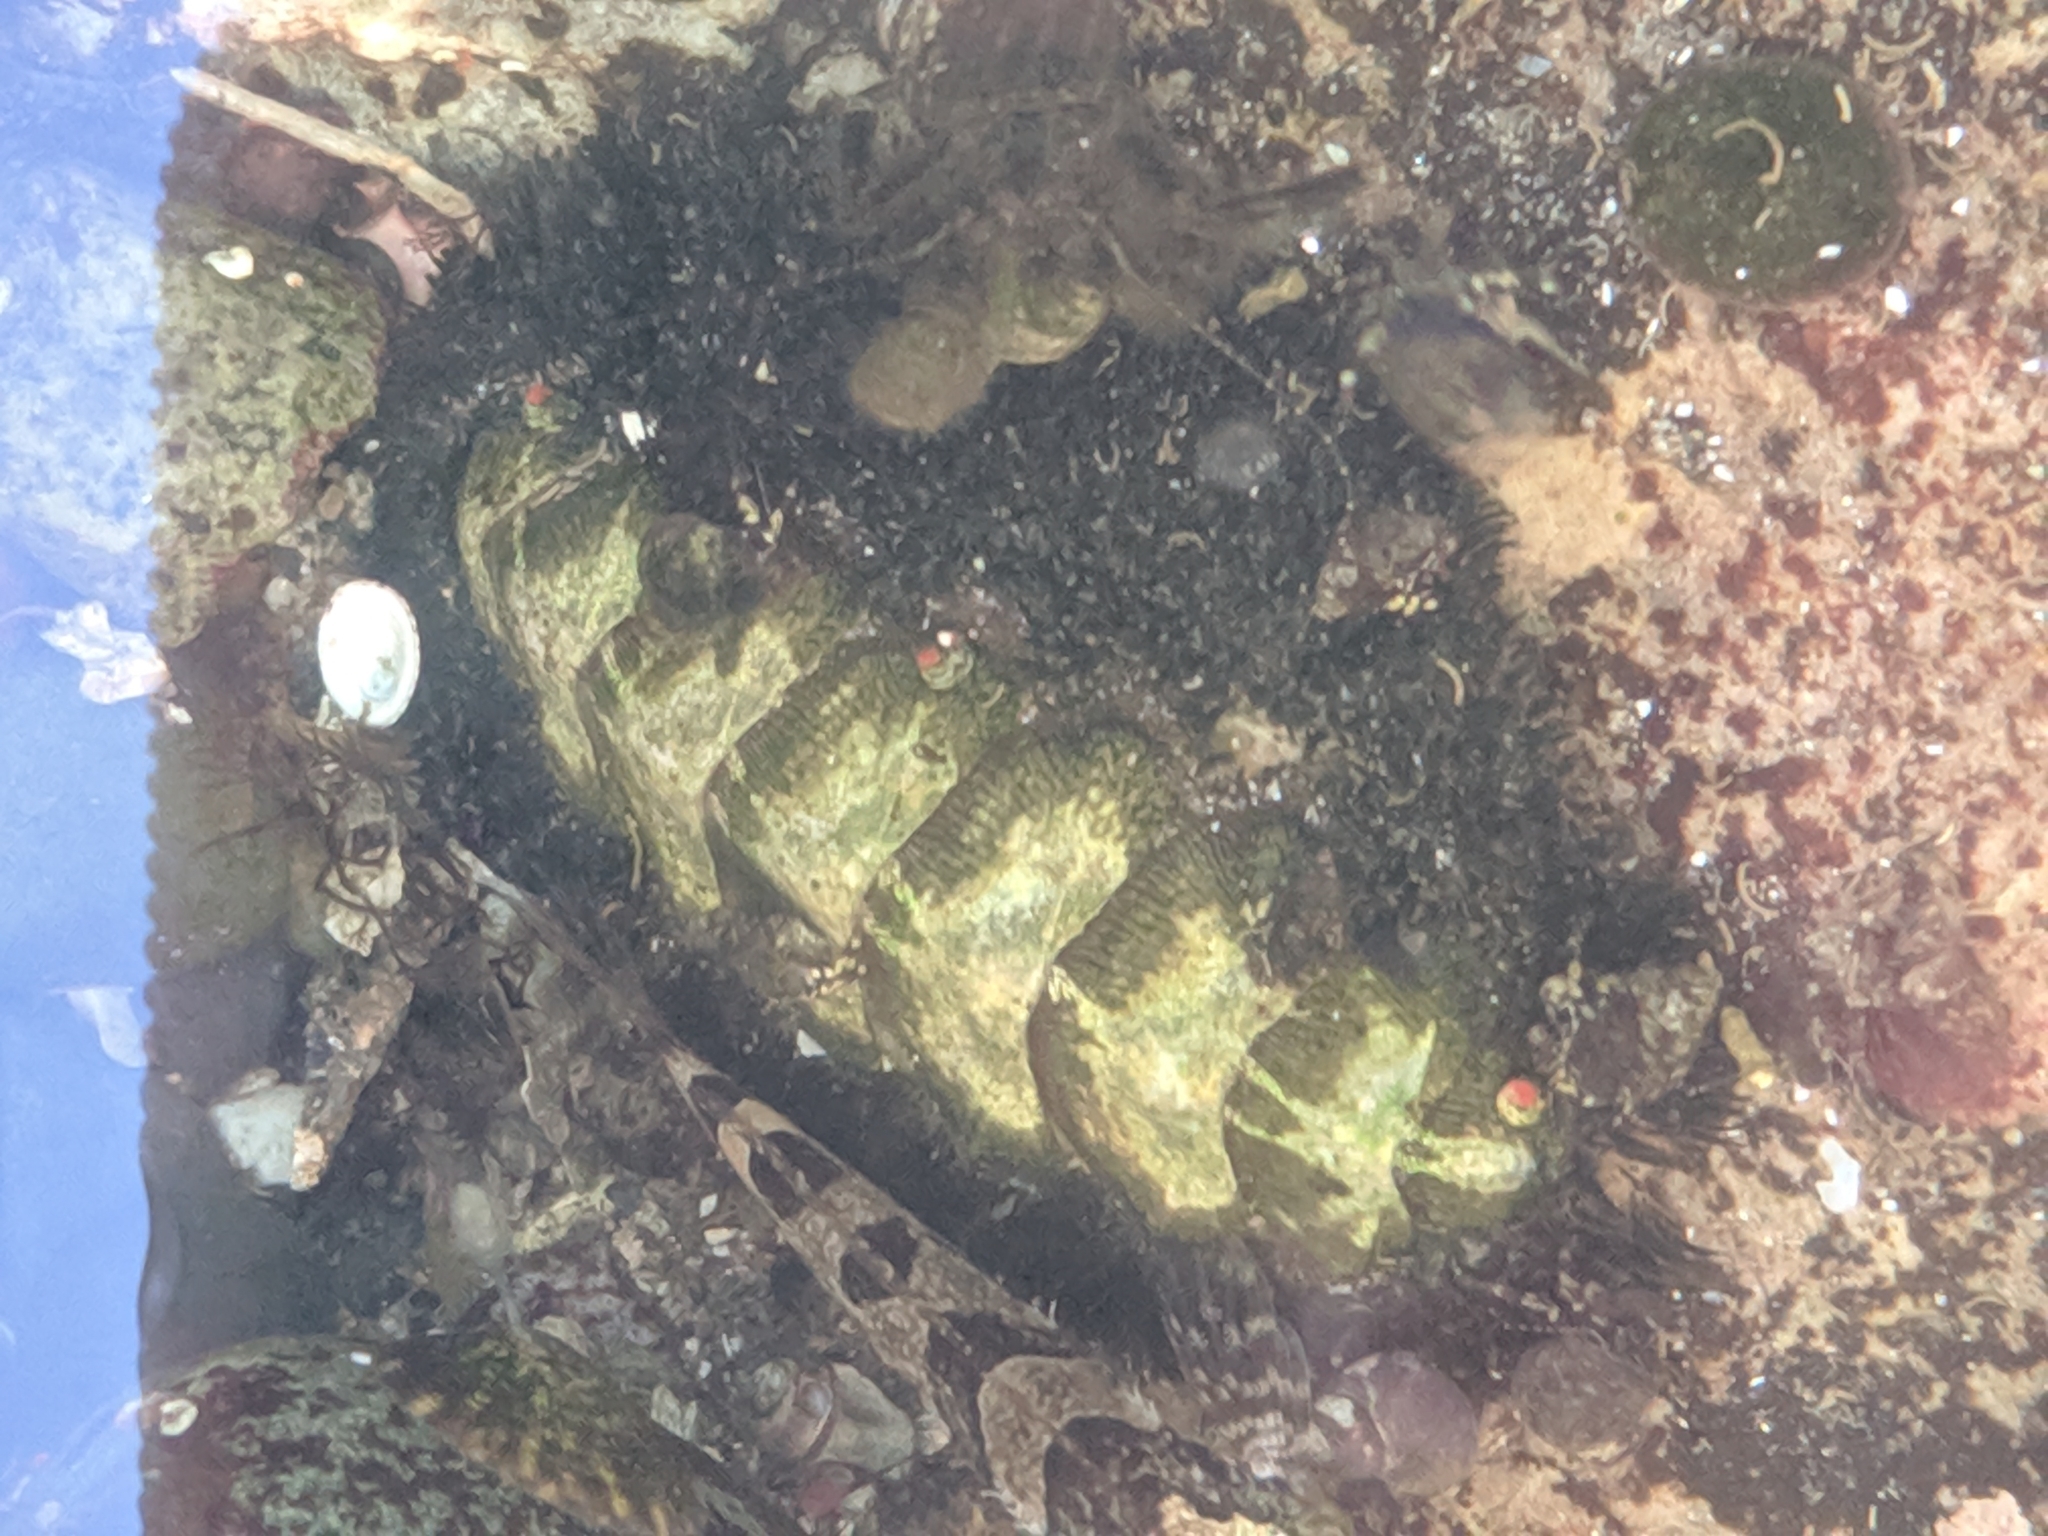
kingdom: Animalia
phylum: Mollusca
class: Polyplacophora
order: Chitonida
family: Mopaliidae
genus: Mopalia
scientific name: Mopalia muscosa
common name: Mossy chiton
